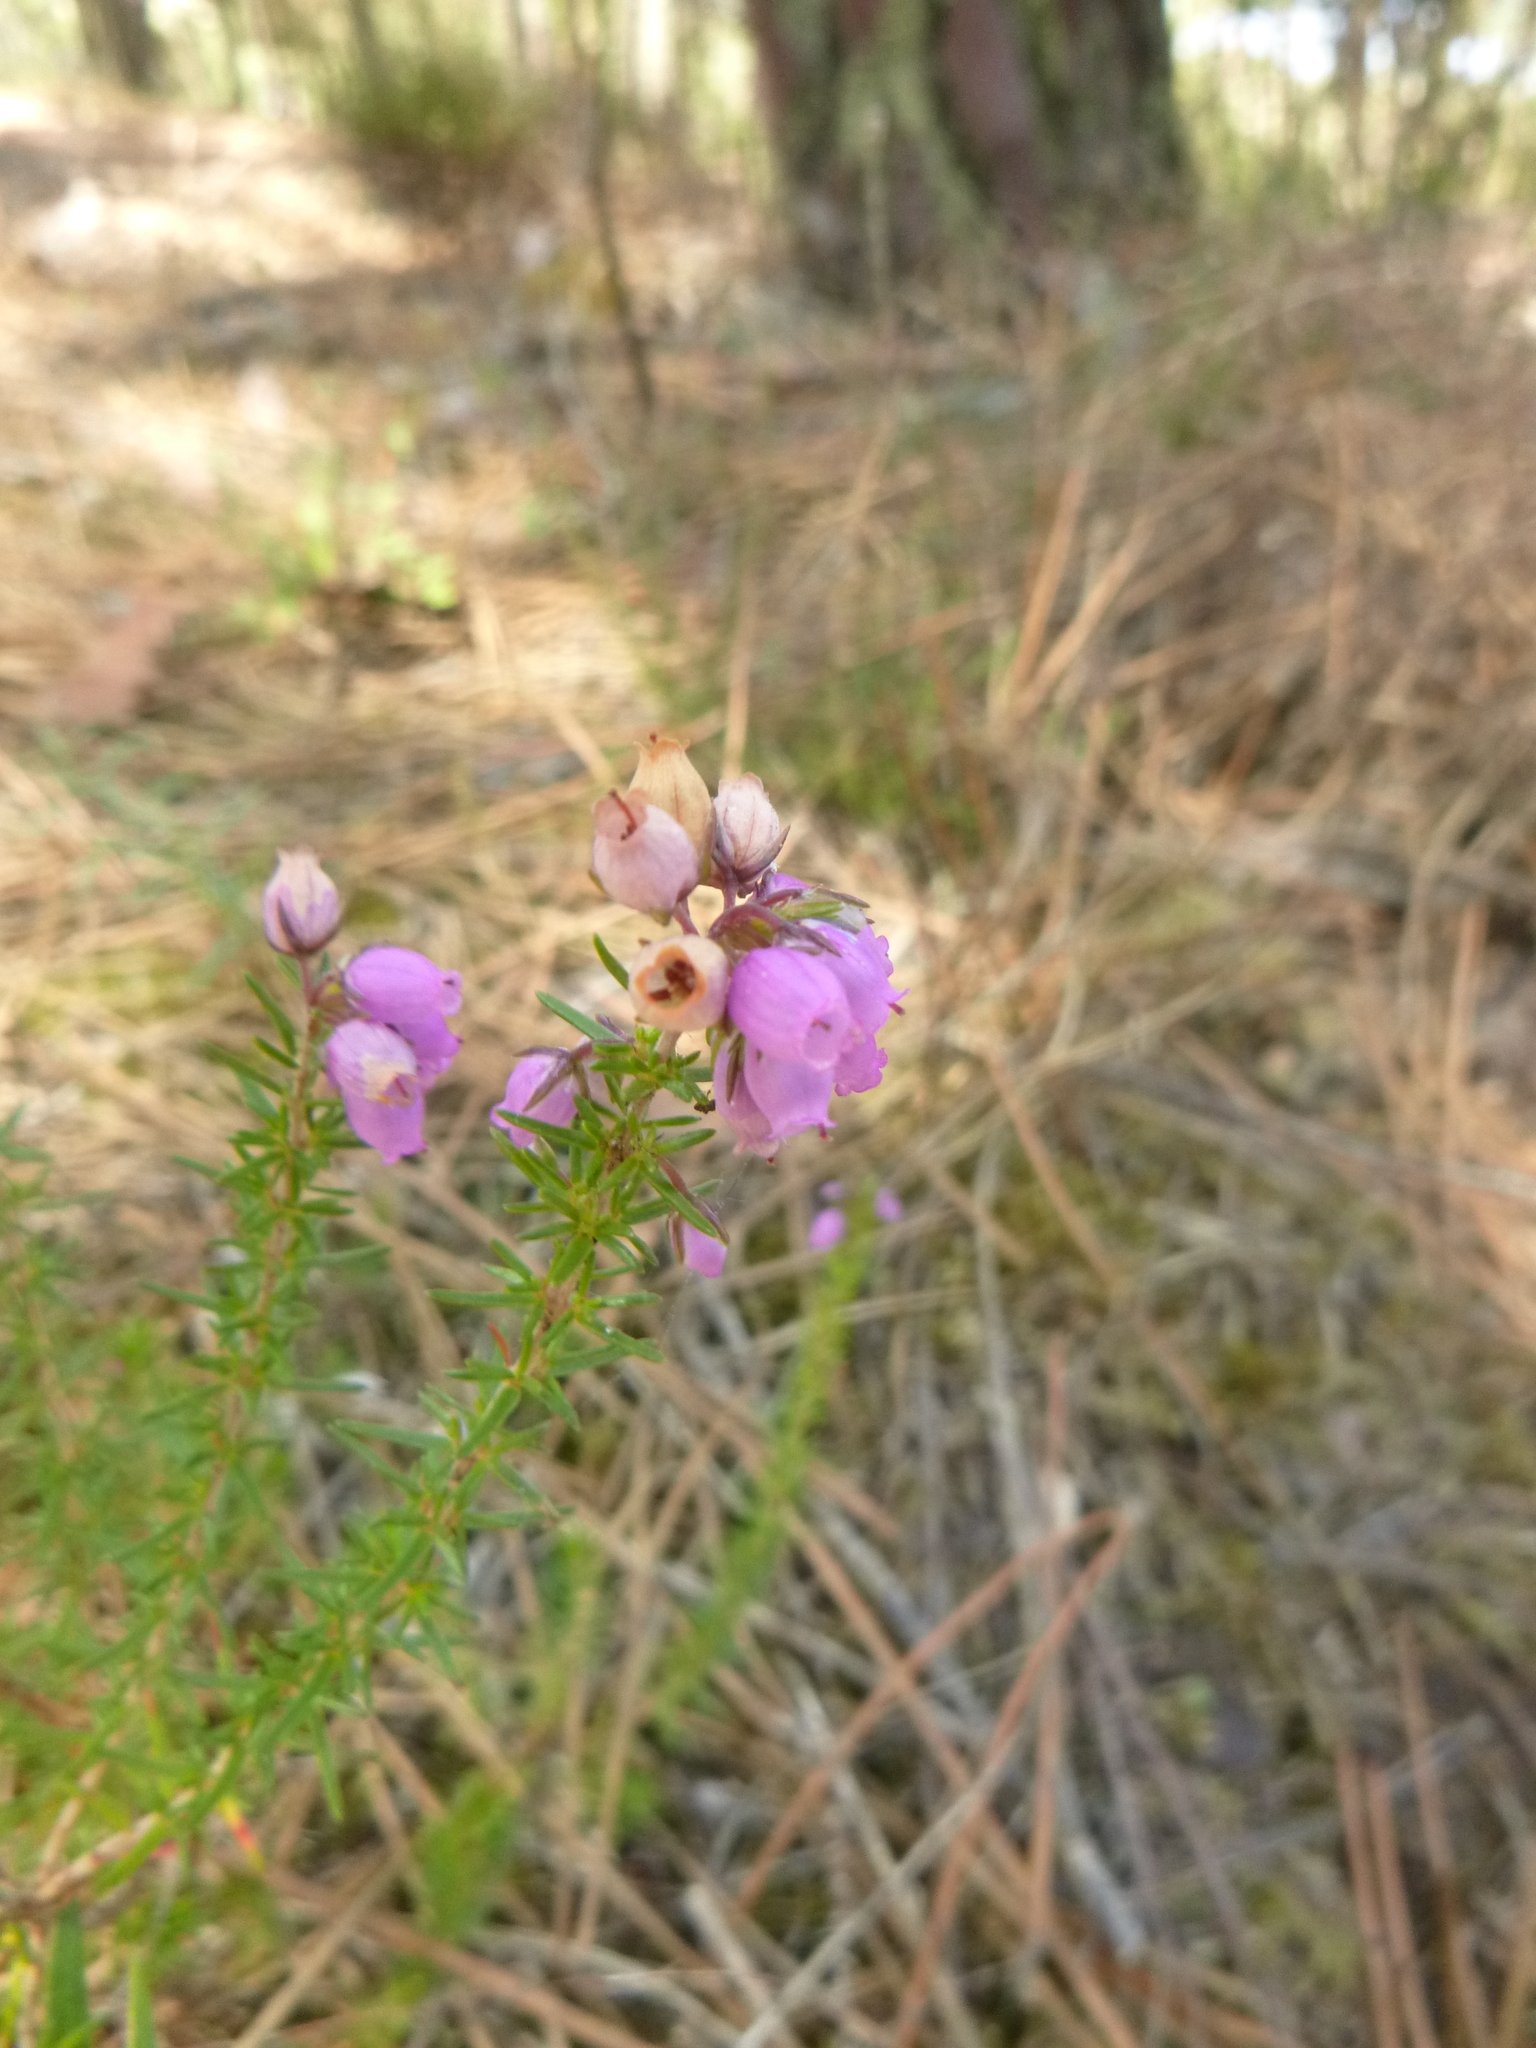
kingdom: Plantae
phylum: Tracheophyta
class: Magnoliopsida
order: Ericales
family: Ericaceae
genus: Erica
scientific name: Erica cinerea
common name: Bell heather
